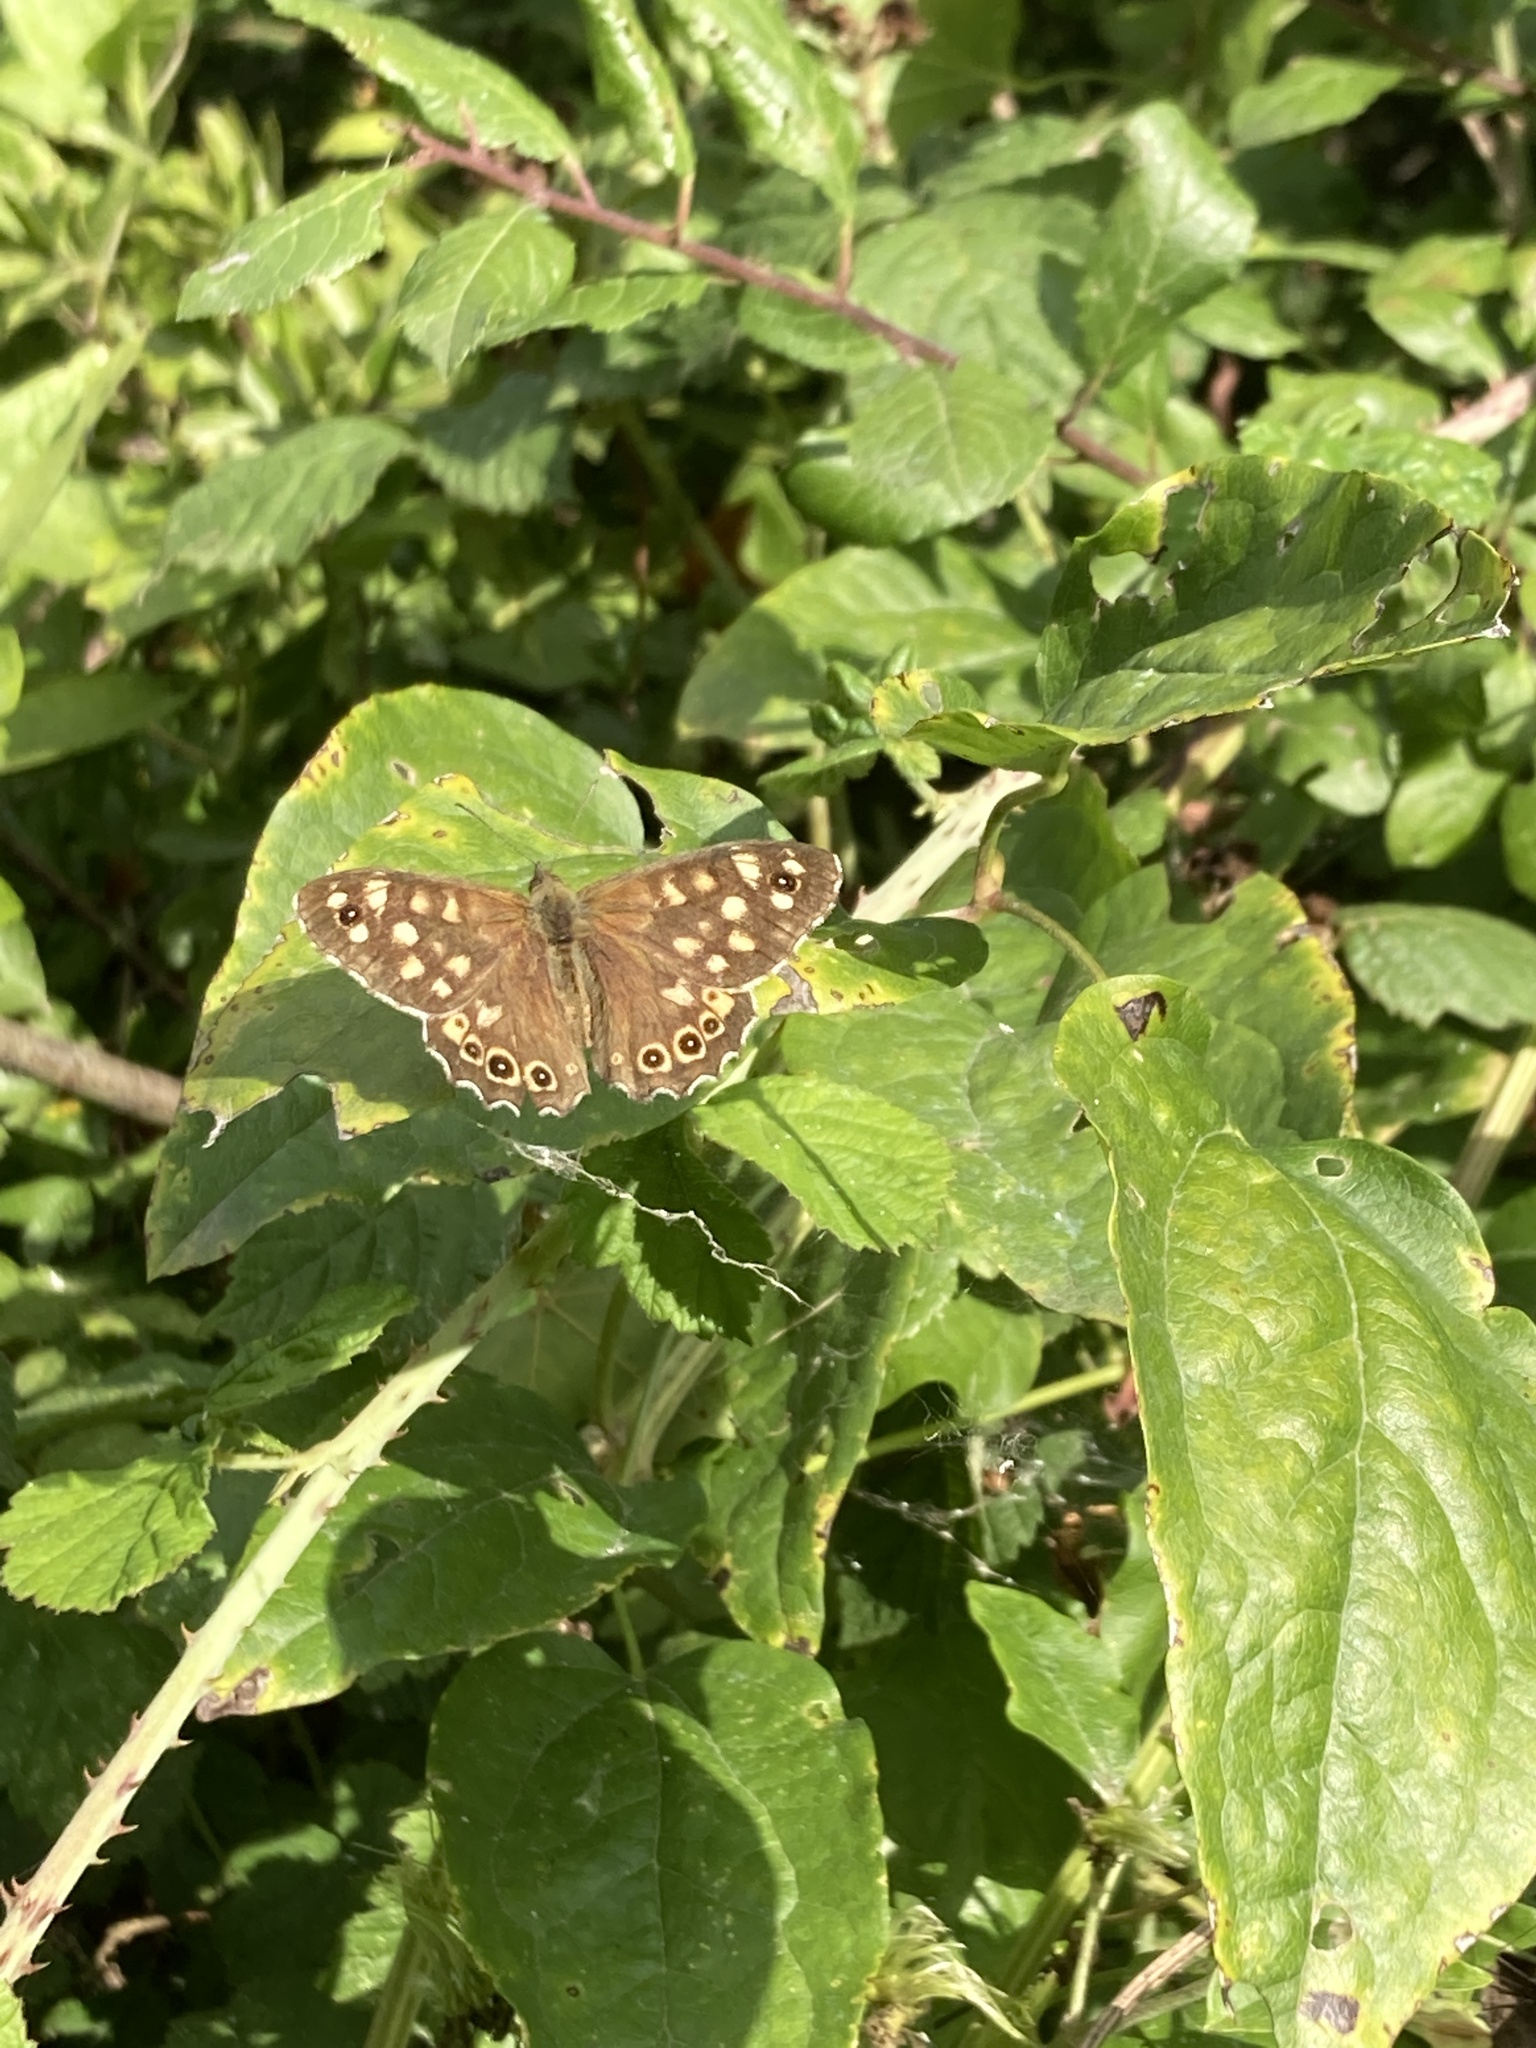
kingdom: Animalia
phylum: Arthropoda
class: Insecta
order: Lepidoptera
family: Nymphalidae
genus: Pararge
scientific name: Pararge aegeria
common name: Speckled wood
